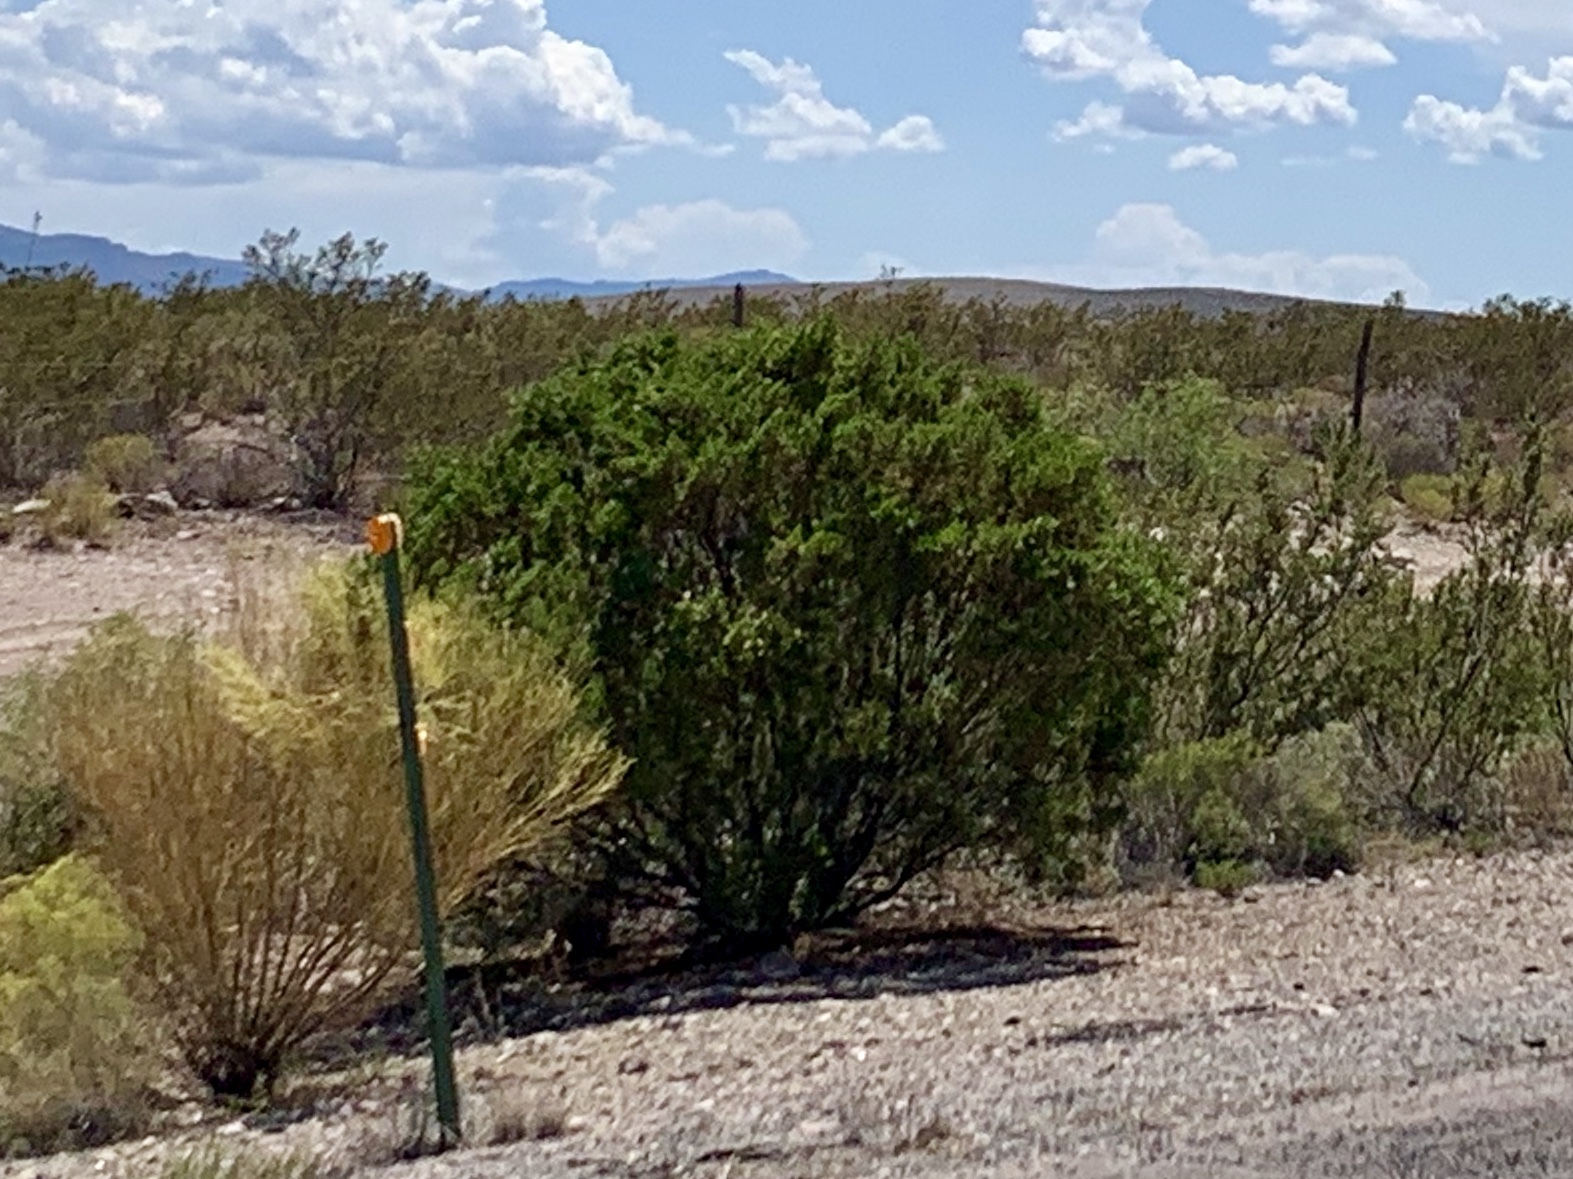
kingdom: Plantae
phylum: Tracheophyta
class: Magnoliopsida
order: Zygophyllales
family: Zygophyllaceae
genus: Larrea
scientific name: Larrea tridentata
